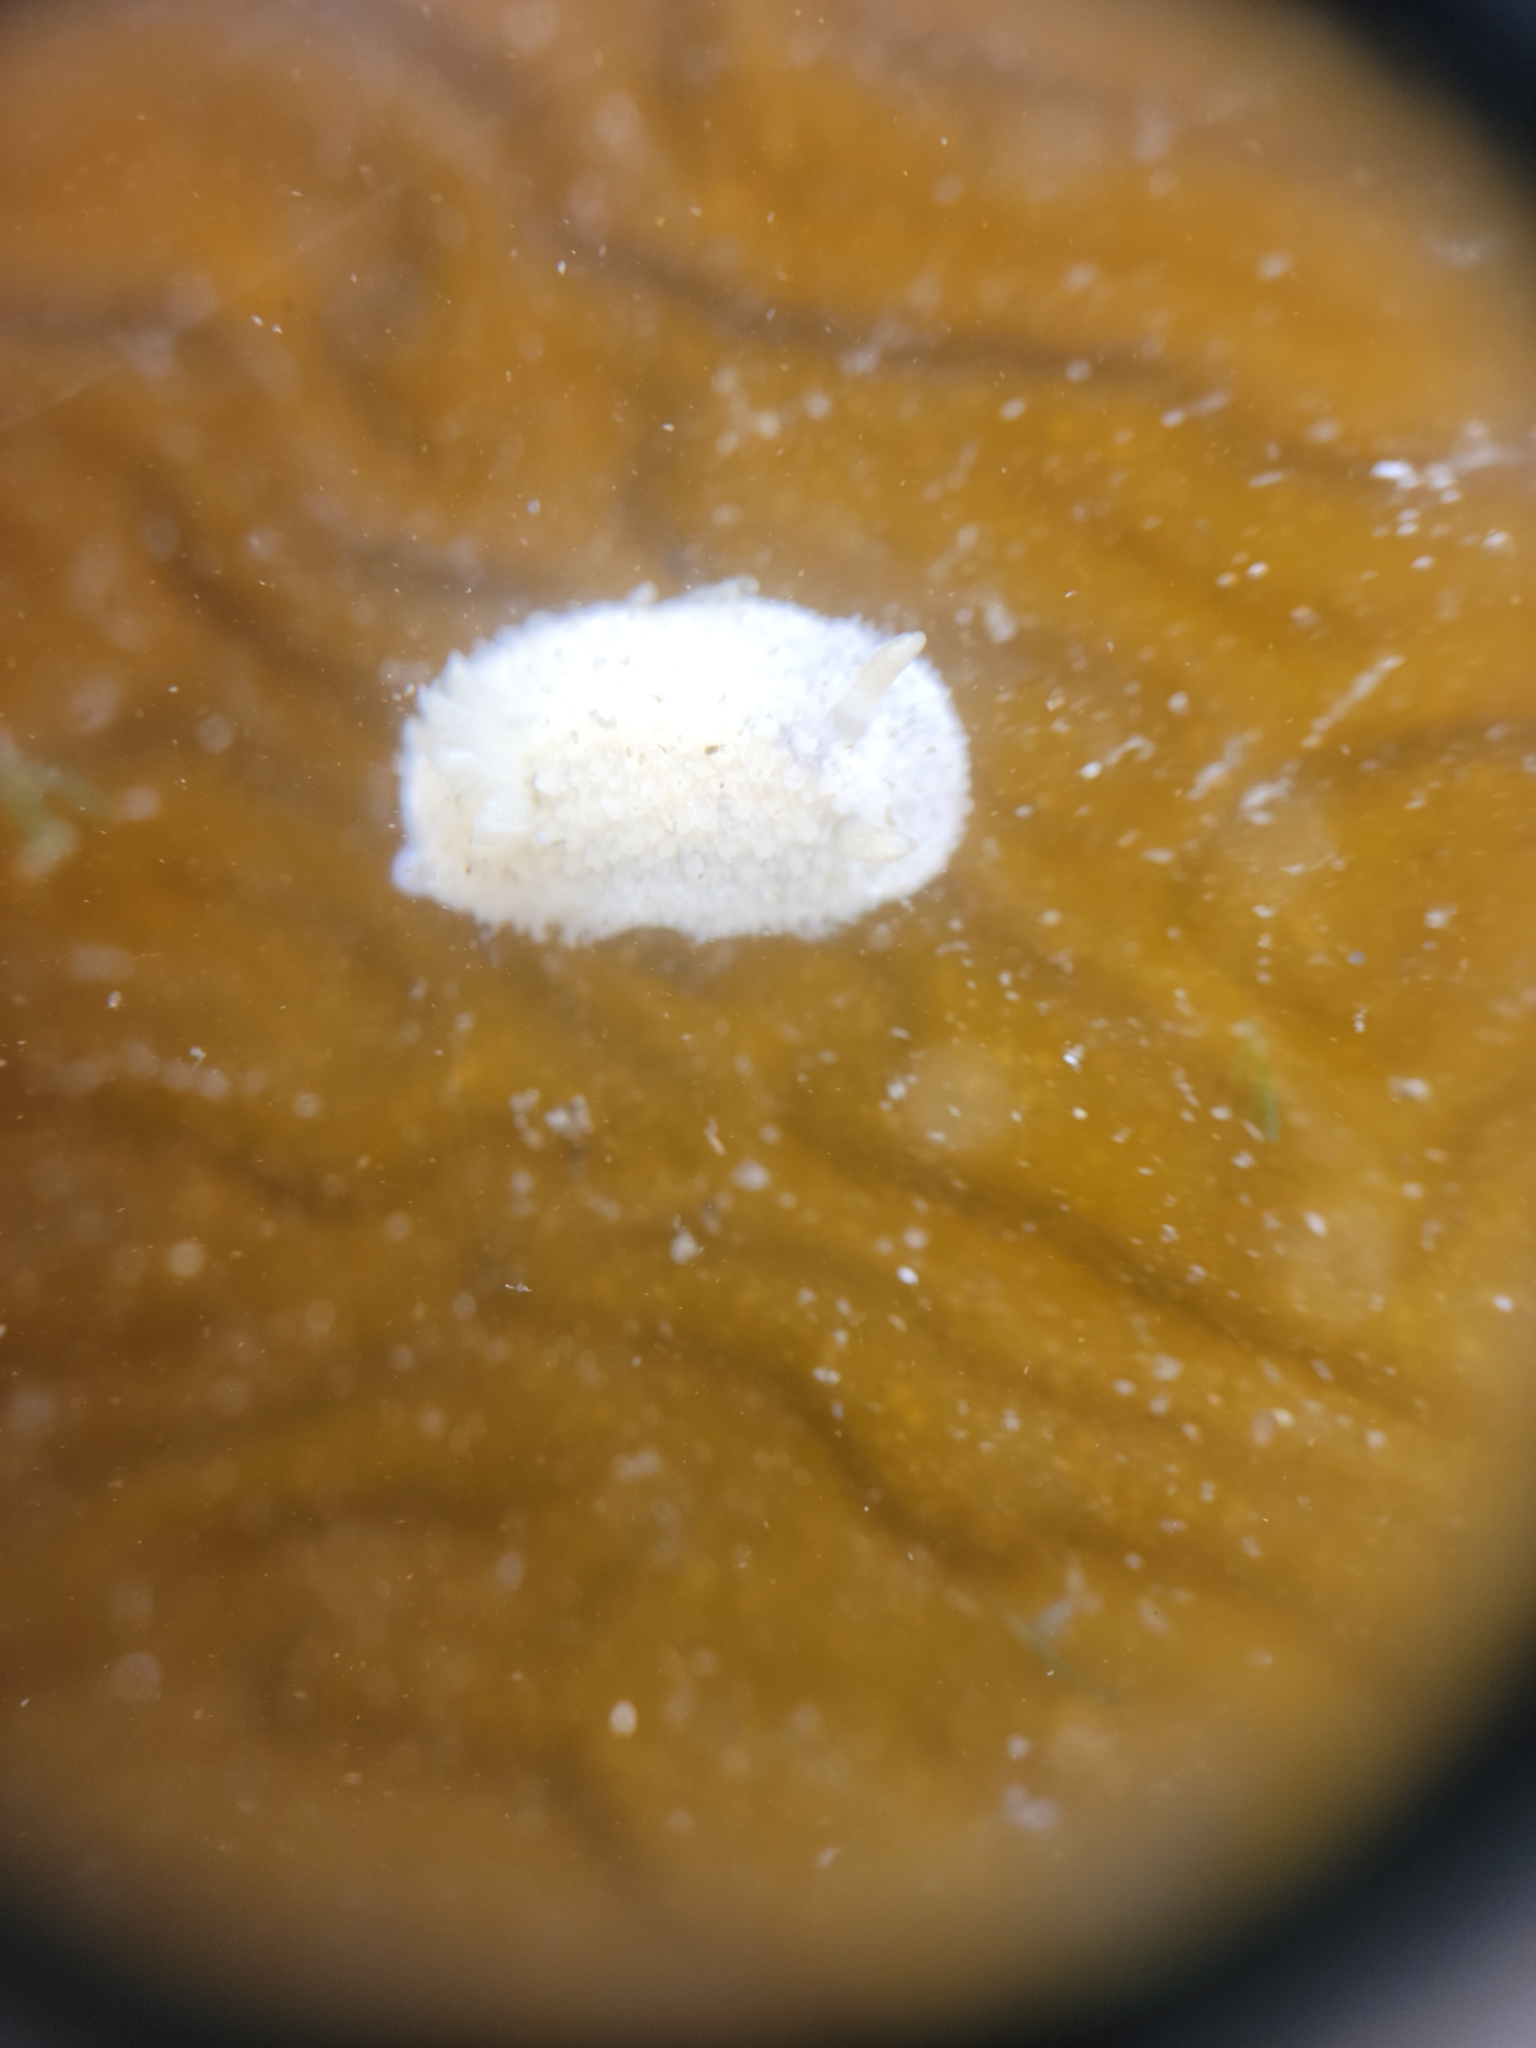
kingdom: Animalia
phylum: Mollusca
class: Gastropoda
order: Nudibranchia
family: Calycidorididae
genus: Diaphorodoris
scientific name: Diaphorodoris lirulatocauda
